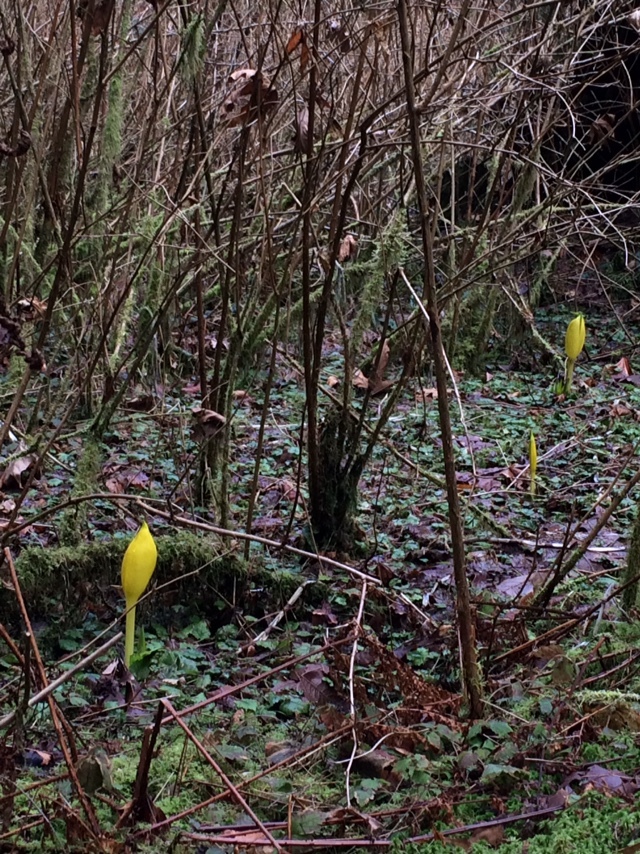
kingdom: Plantae
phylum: Tracheophyta
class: Liliopsida
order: Alismatales
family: Araceae
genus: Lysichiton
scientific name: Lysichiton americanus
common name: American skunk cabbage
